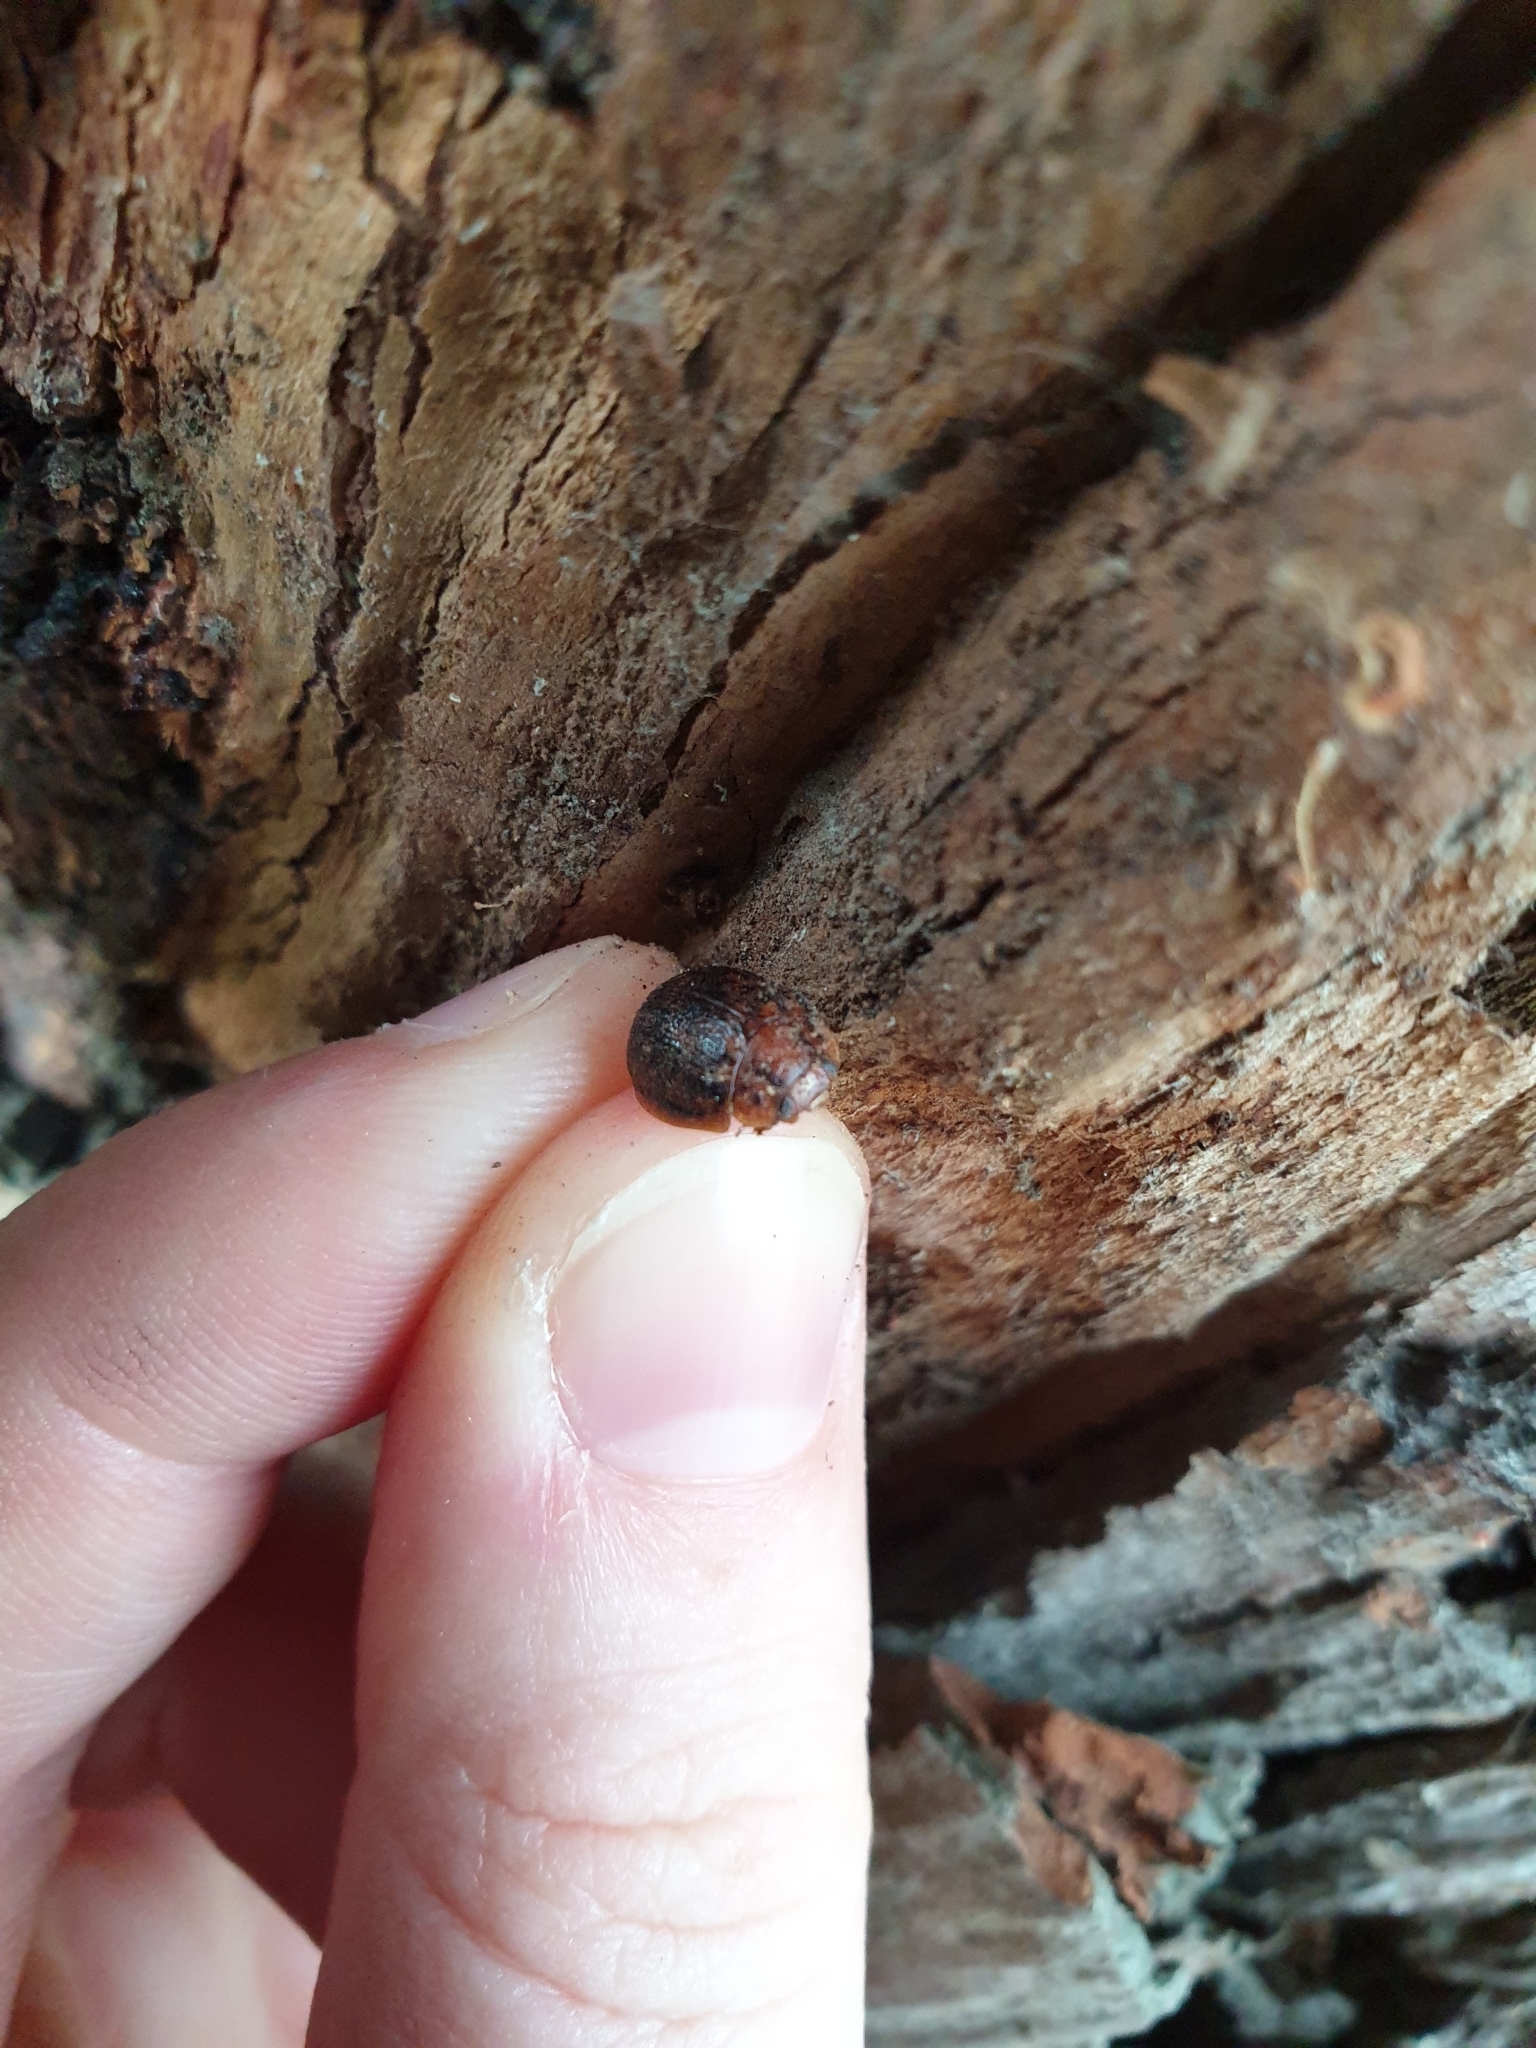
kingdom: Animalia
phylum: Arthropoda
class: Insecta
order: Coleoptera
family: Chrysomelidae
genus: Trachymela
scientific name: Trachymela sloanei
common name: Australian tortoise beetle
